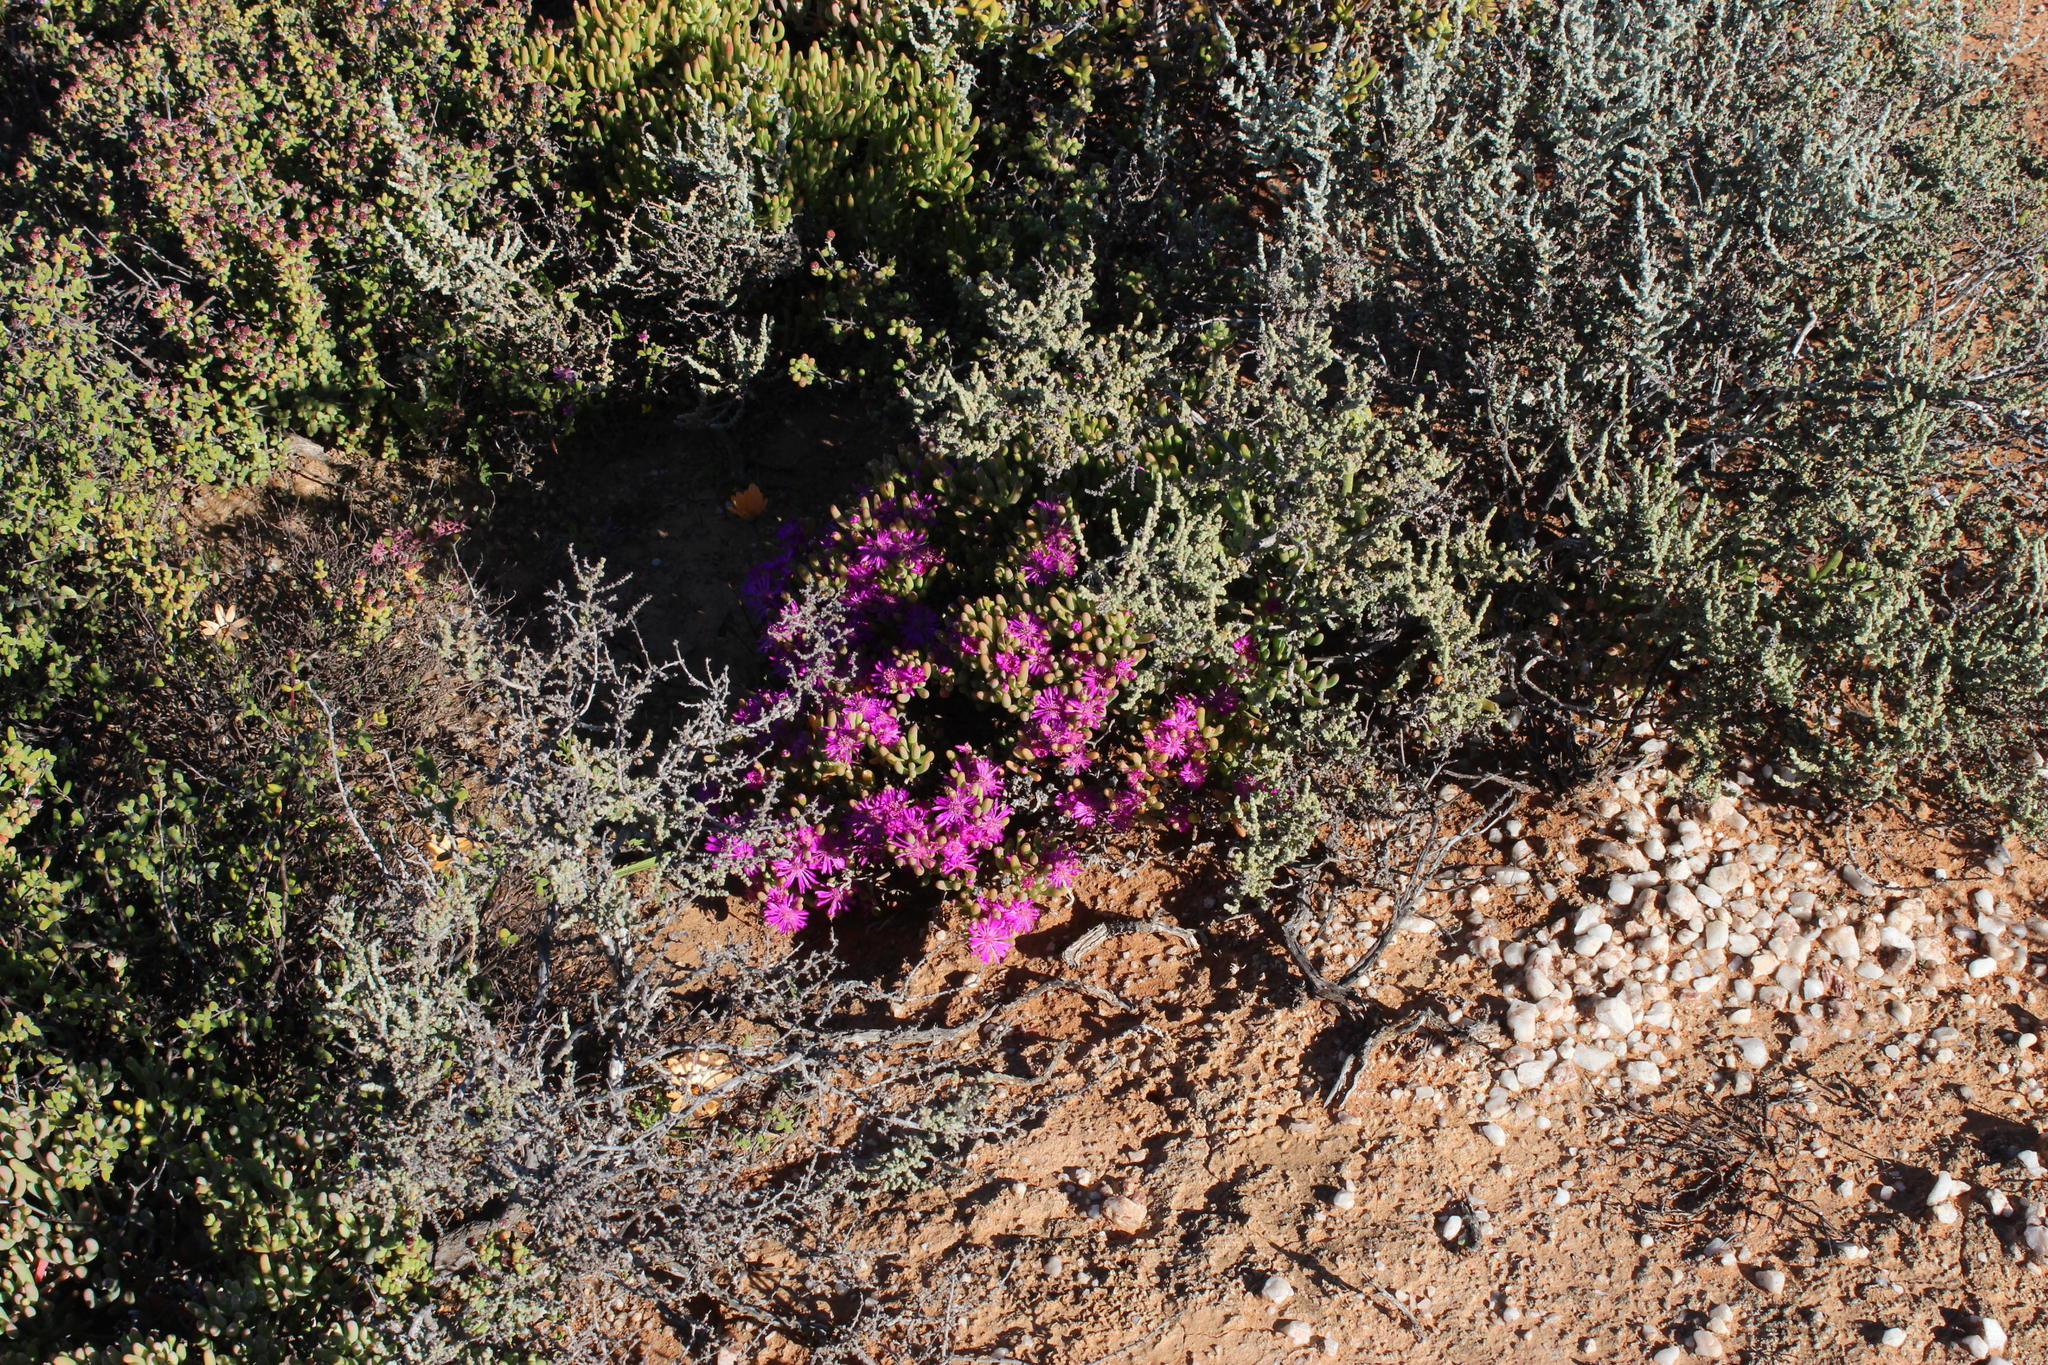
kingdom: Plantae
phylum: Tracheophyta
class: Magnoliopsida
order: Caryophyllales
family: Aizoaceae
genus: Lampranthus
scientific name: Lampranthus otzenianus
